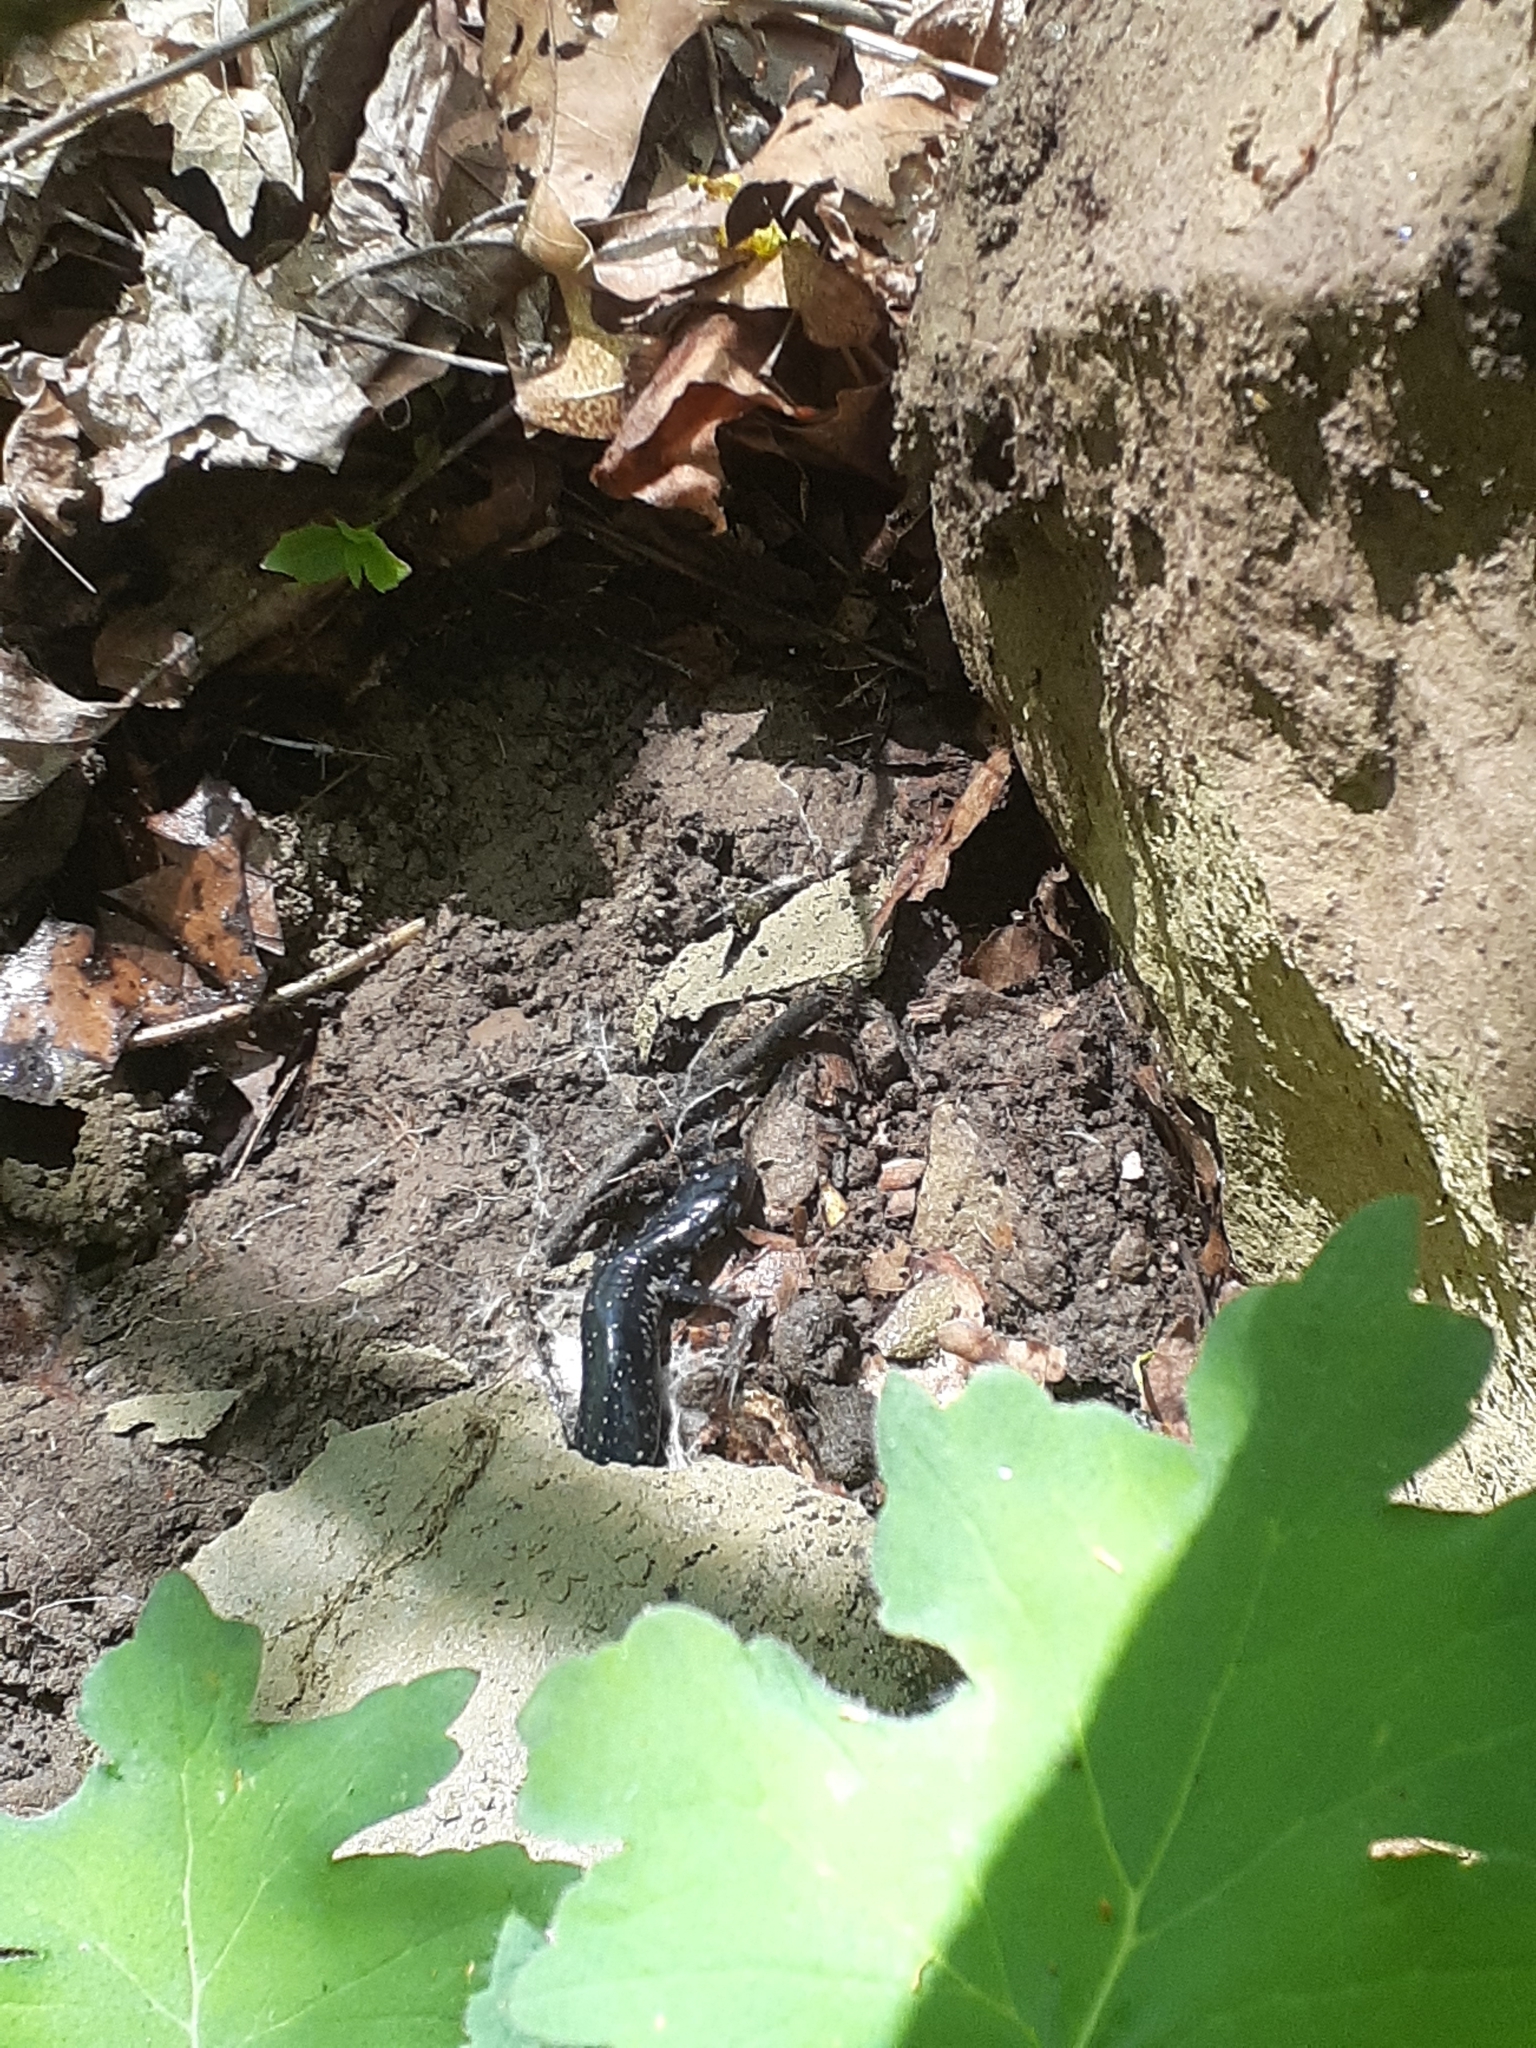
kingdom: Animalia
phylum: Chordata
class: Amphibia
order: Caudata
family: Plethodontidae
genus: Plethodon
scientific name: Plethodon glutinosus
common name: Northern slimy salamander
